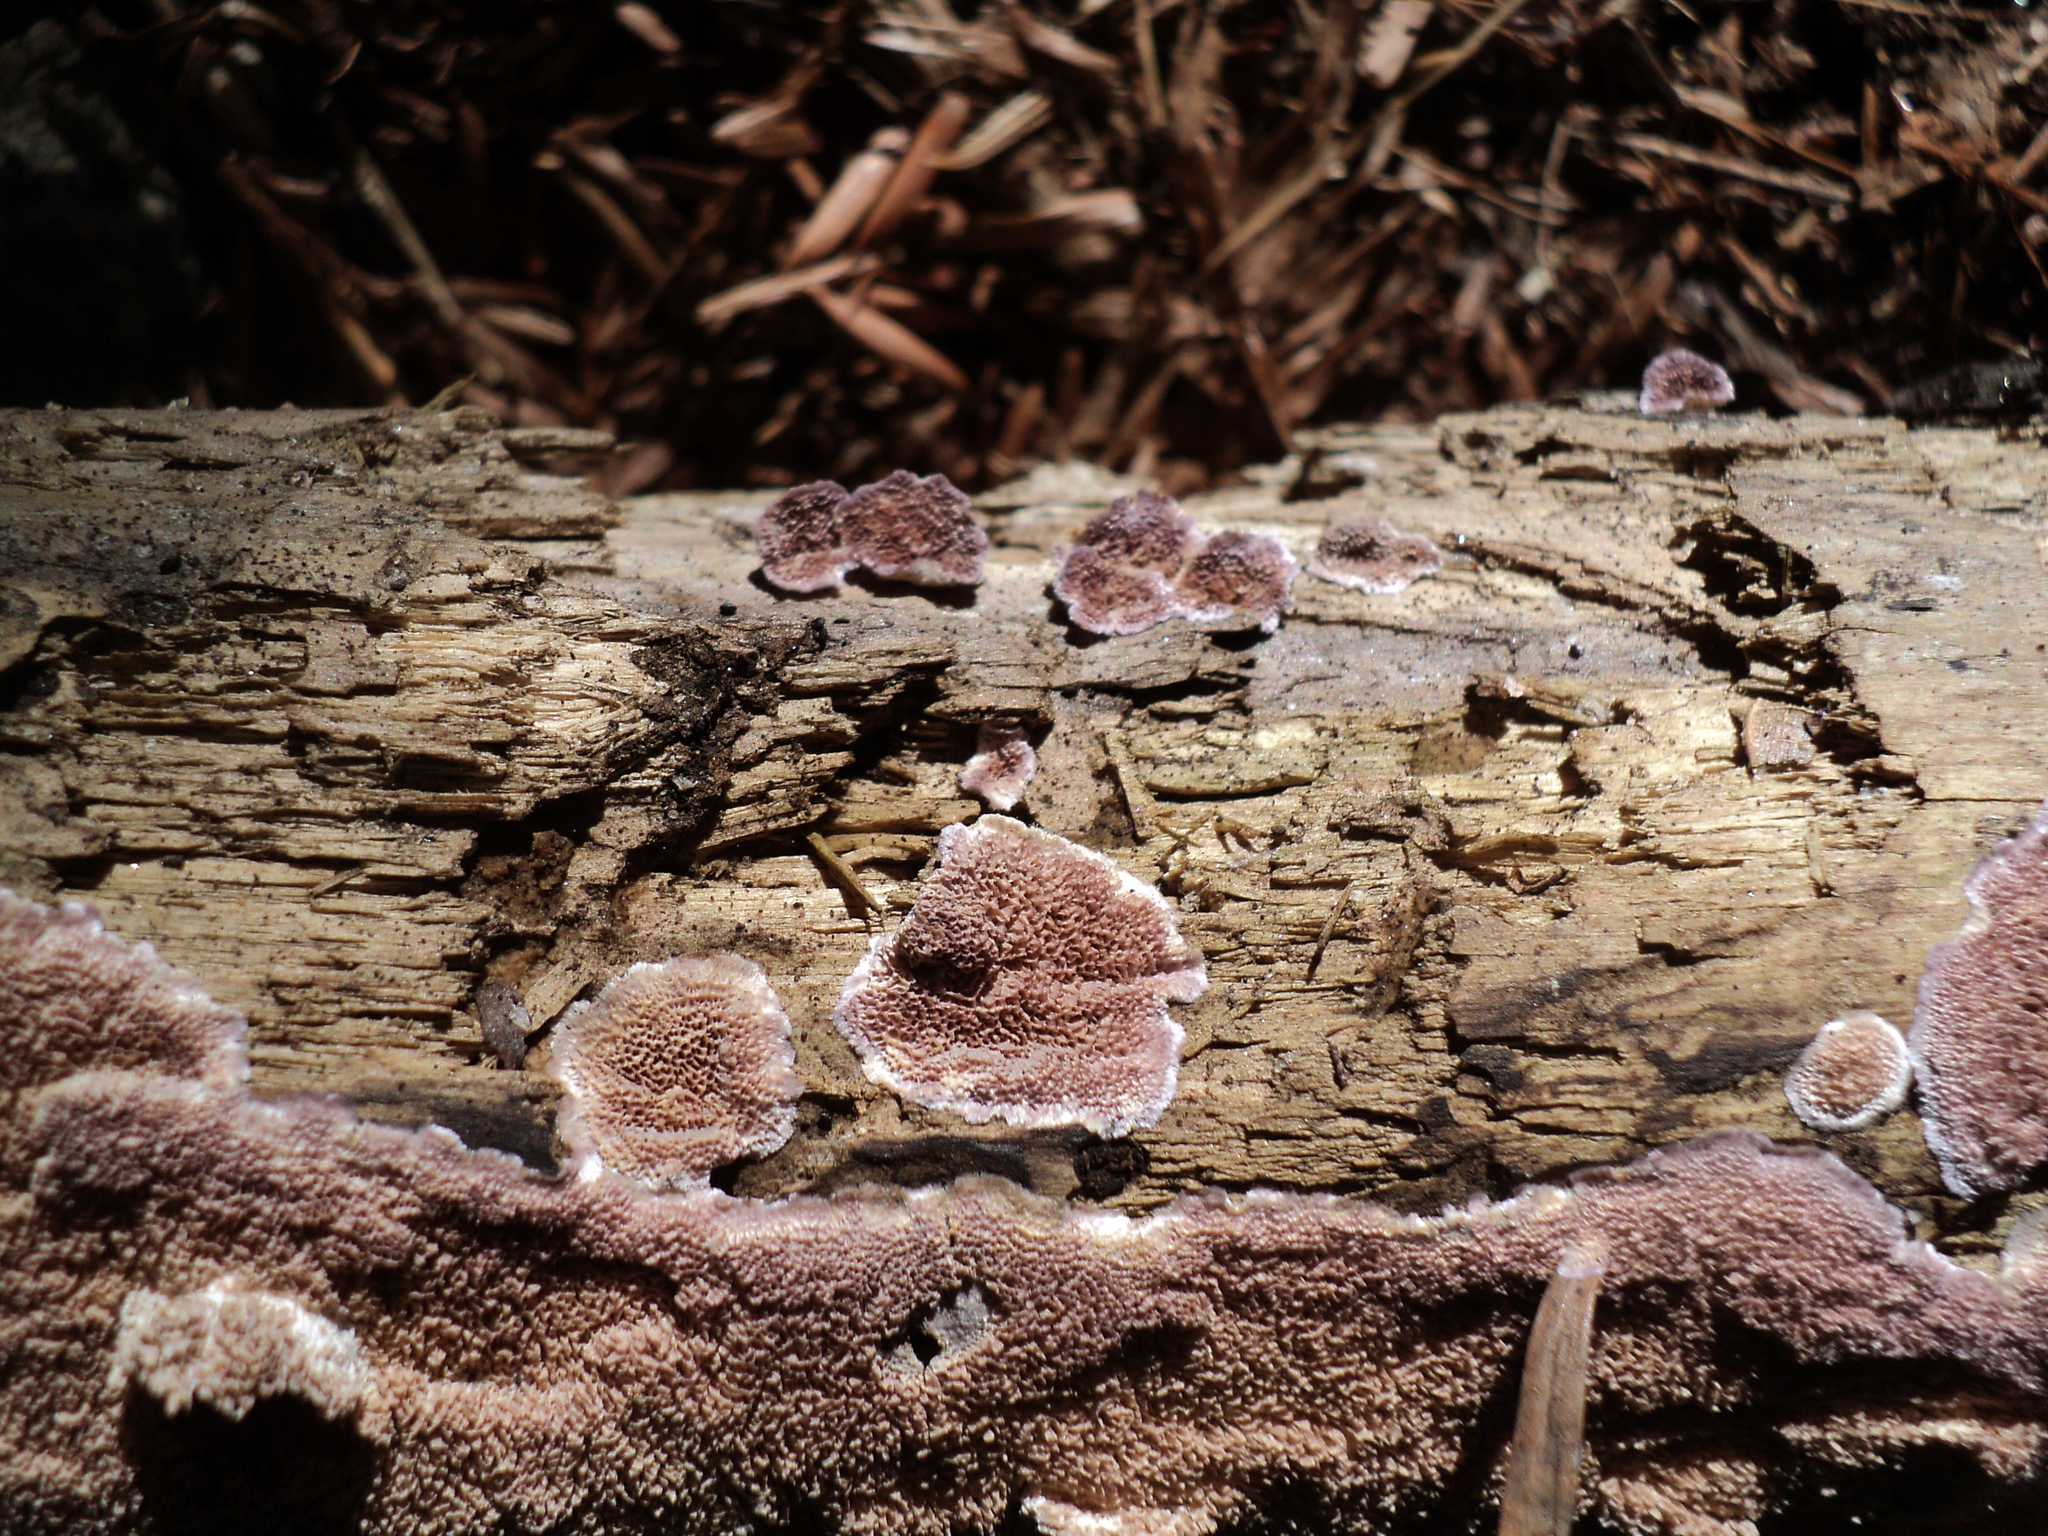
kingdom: Fungi
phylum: Basidiomycota
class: Agaricomycetes
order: Hymenochaetales
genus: Trichaptum
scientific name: Trichaptum abietinum
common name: Purplepore bracket
